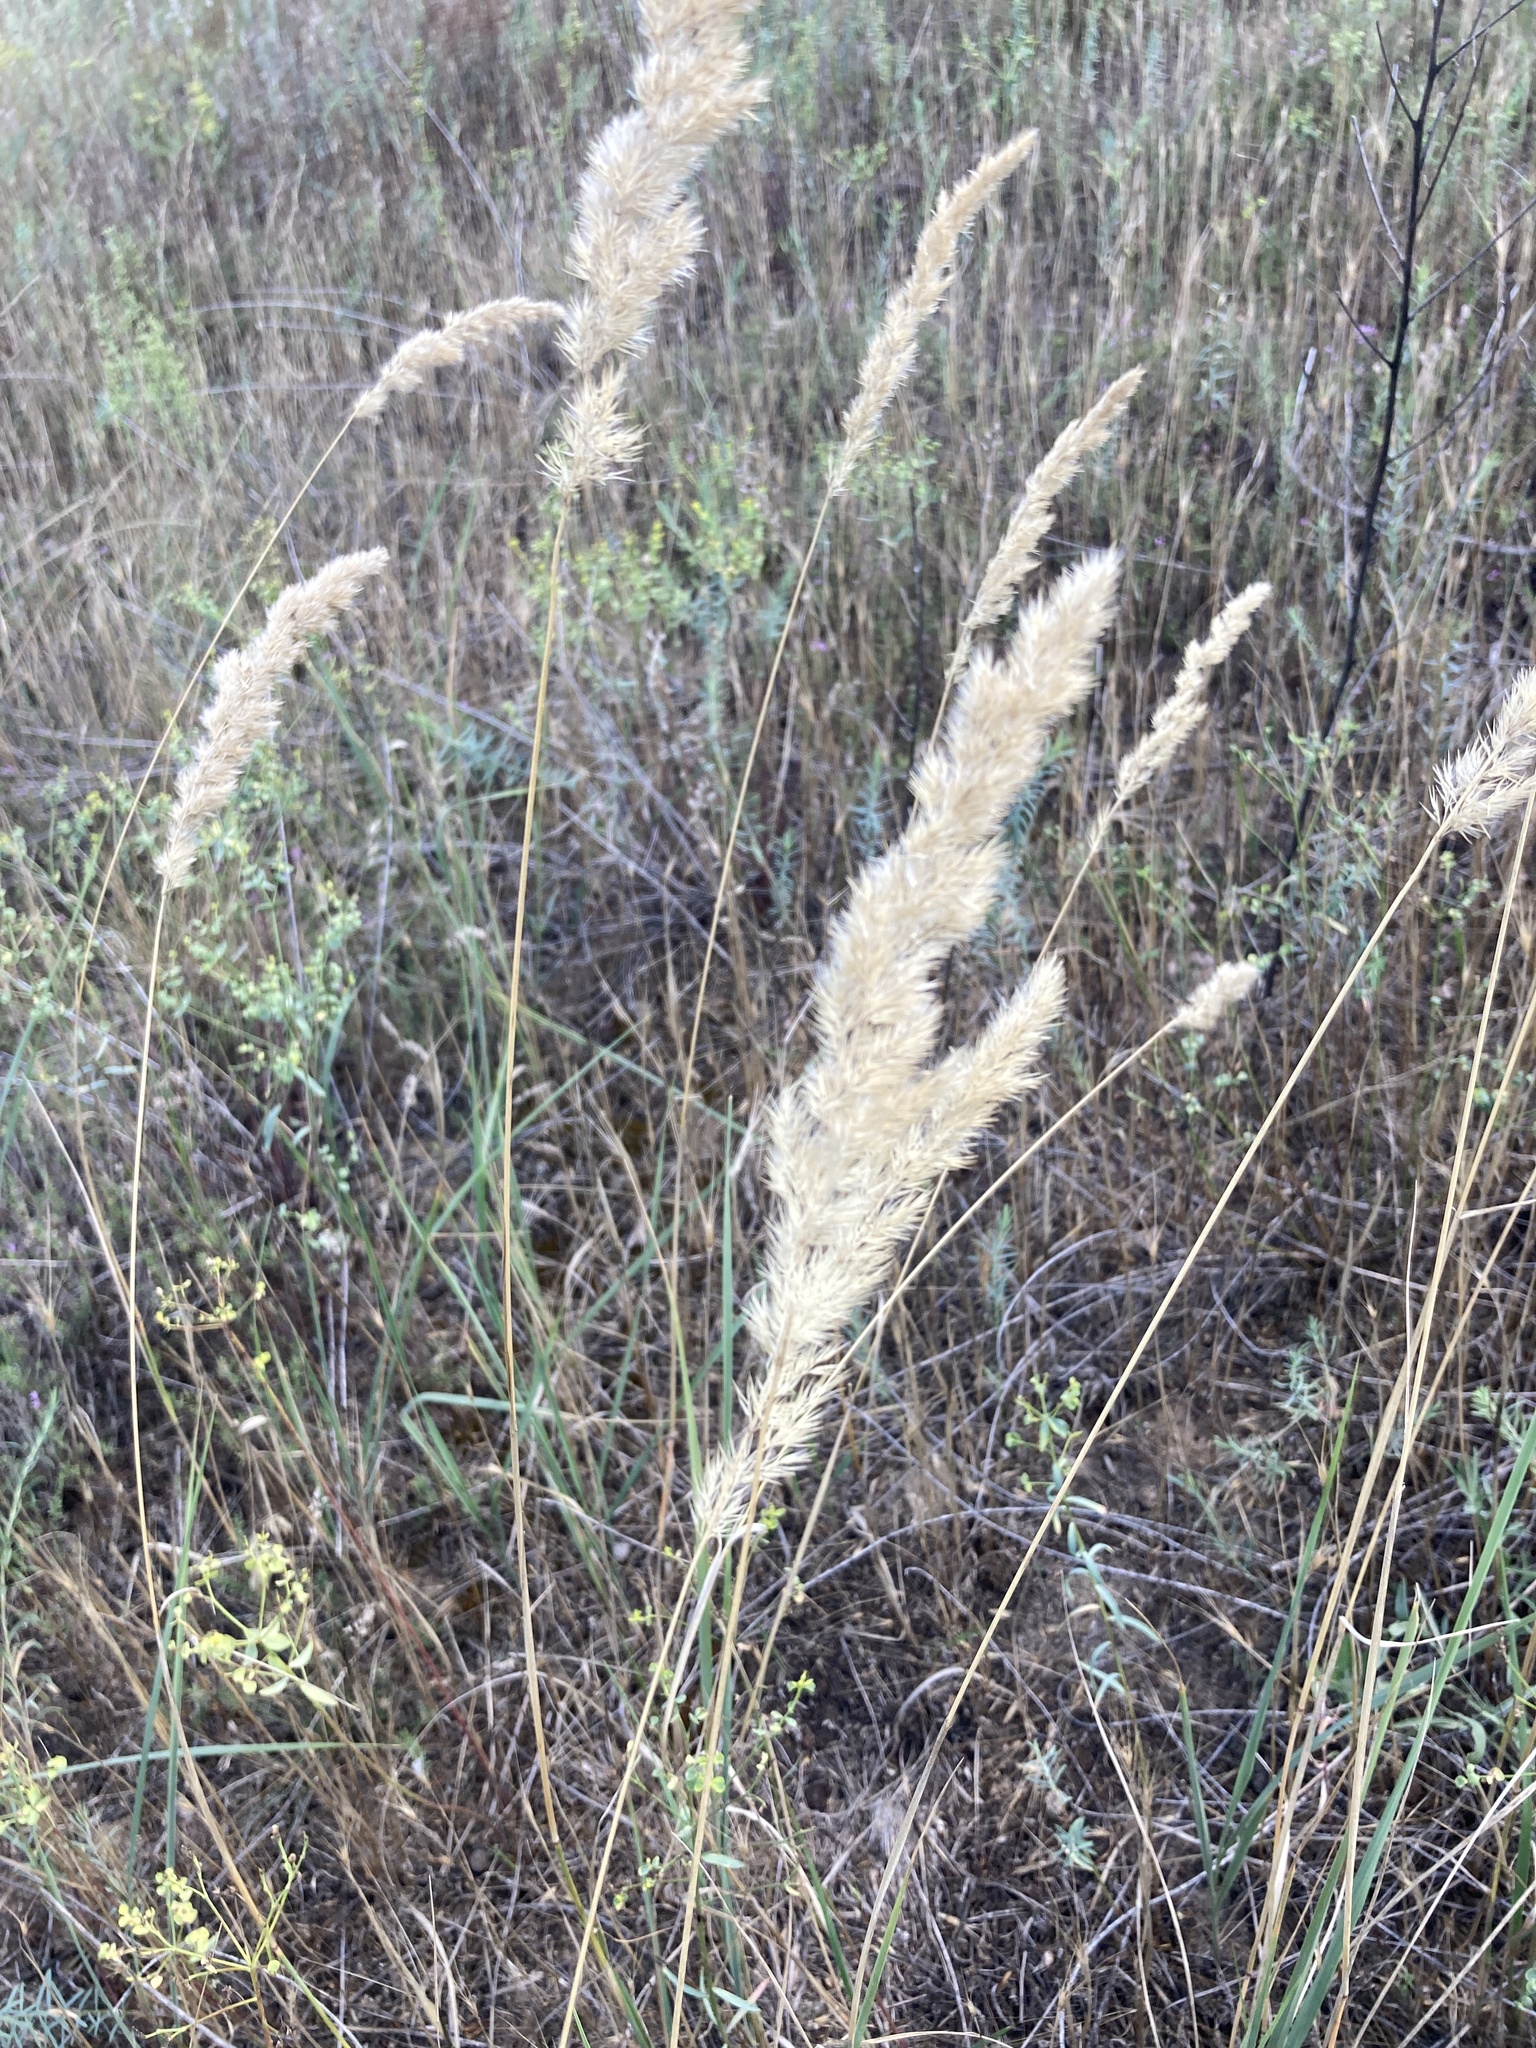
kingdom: Plantae
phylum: Tracheophyta
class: Liliopsida
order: Poales
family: Poaceae
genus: Calamagrostis
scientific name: Calamagrostis epigejos
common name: Wood small-reed
